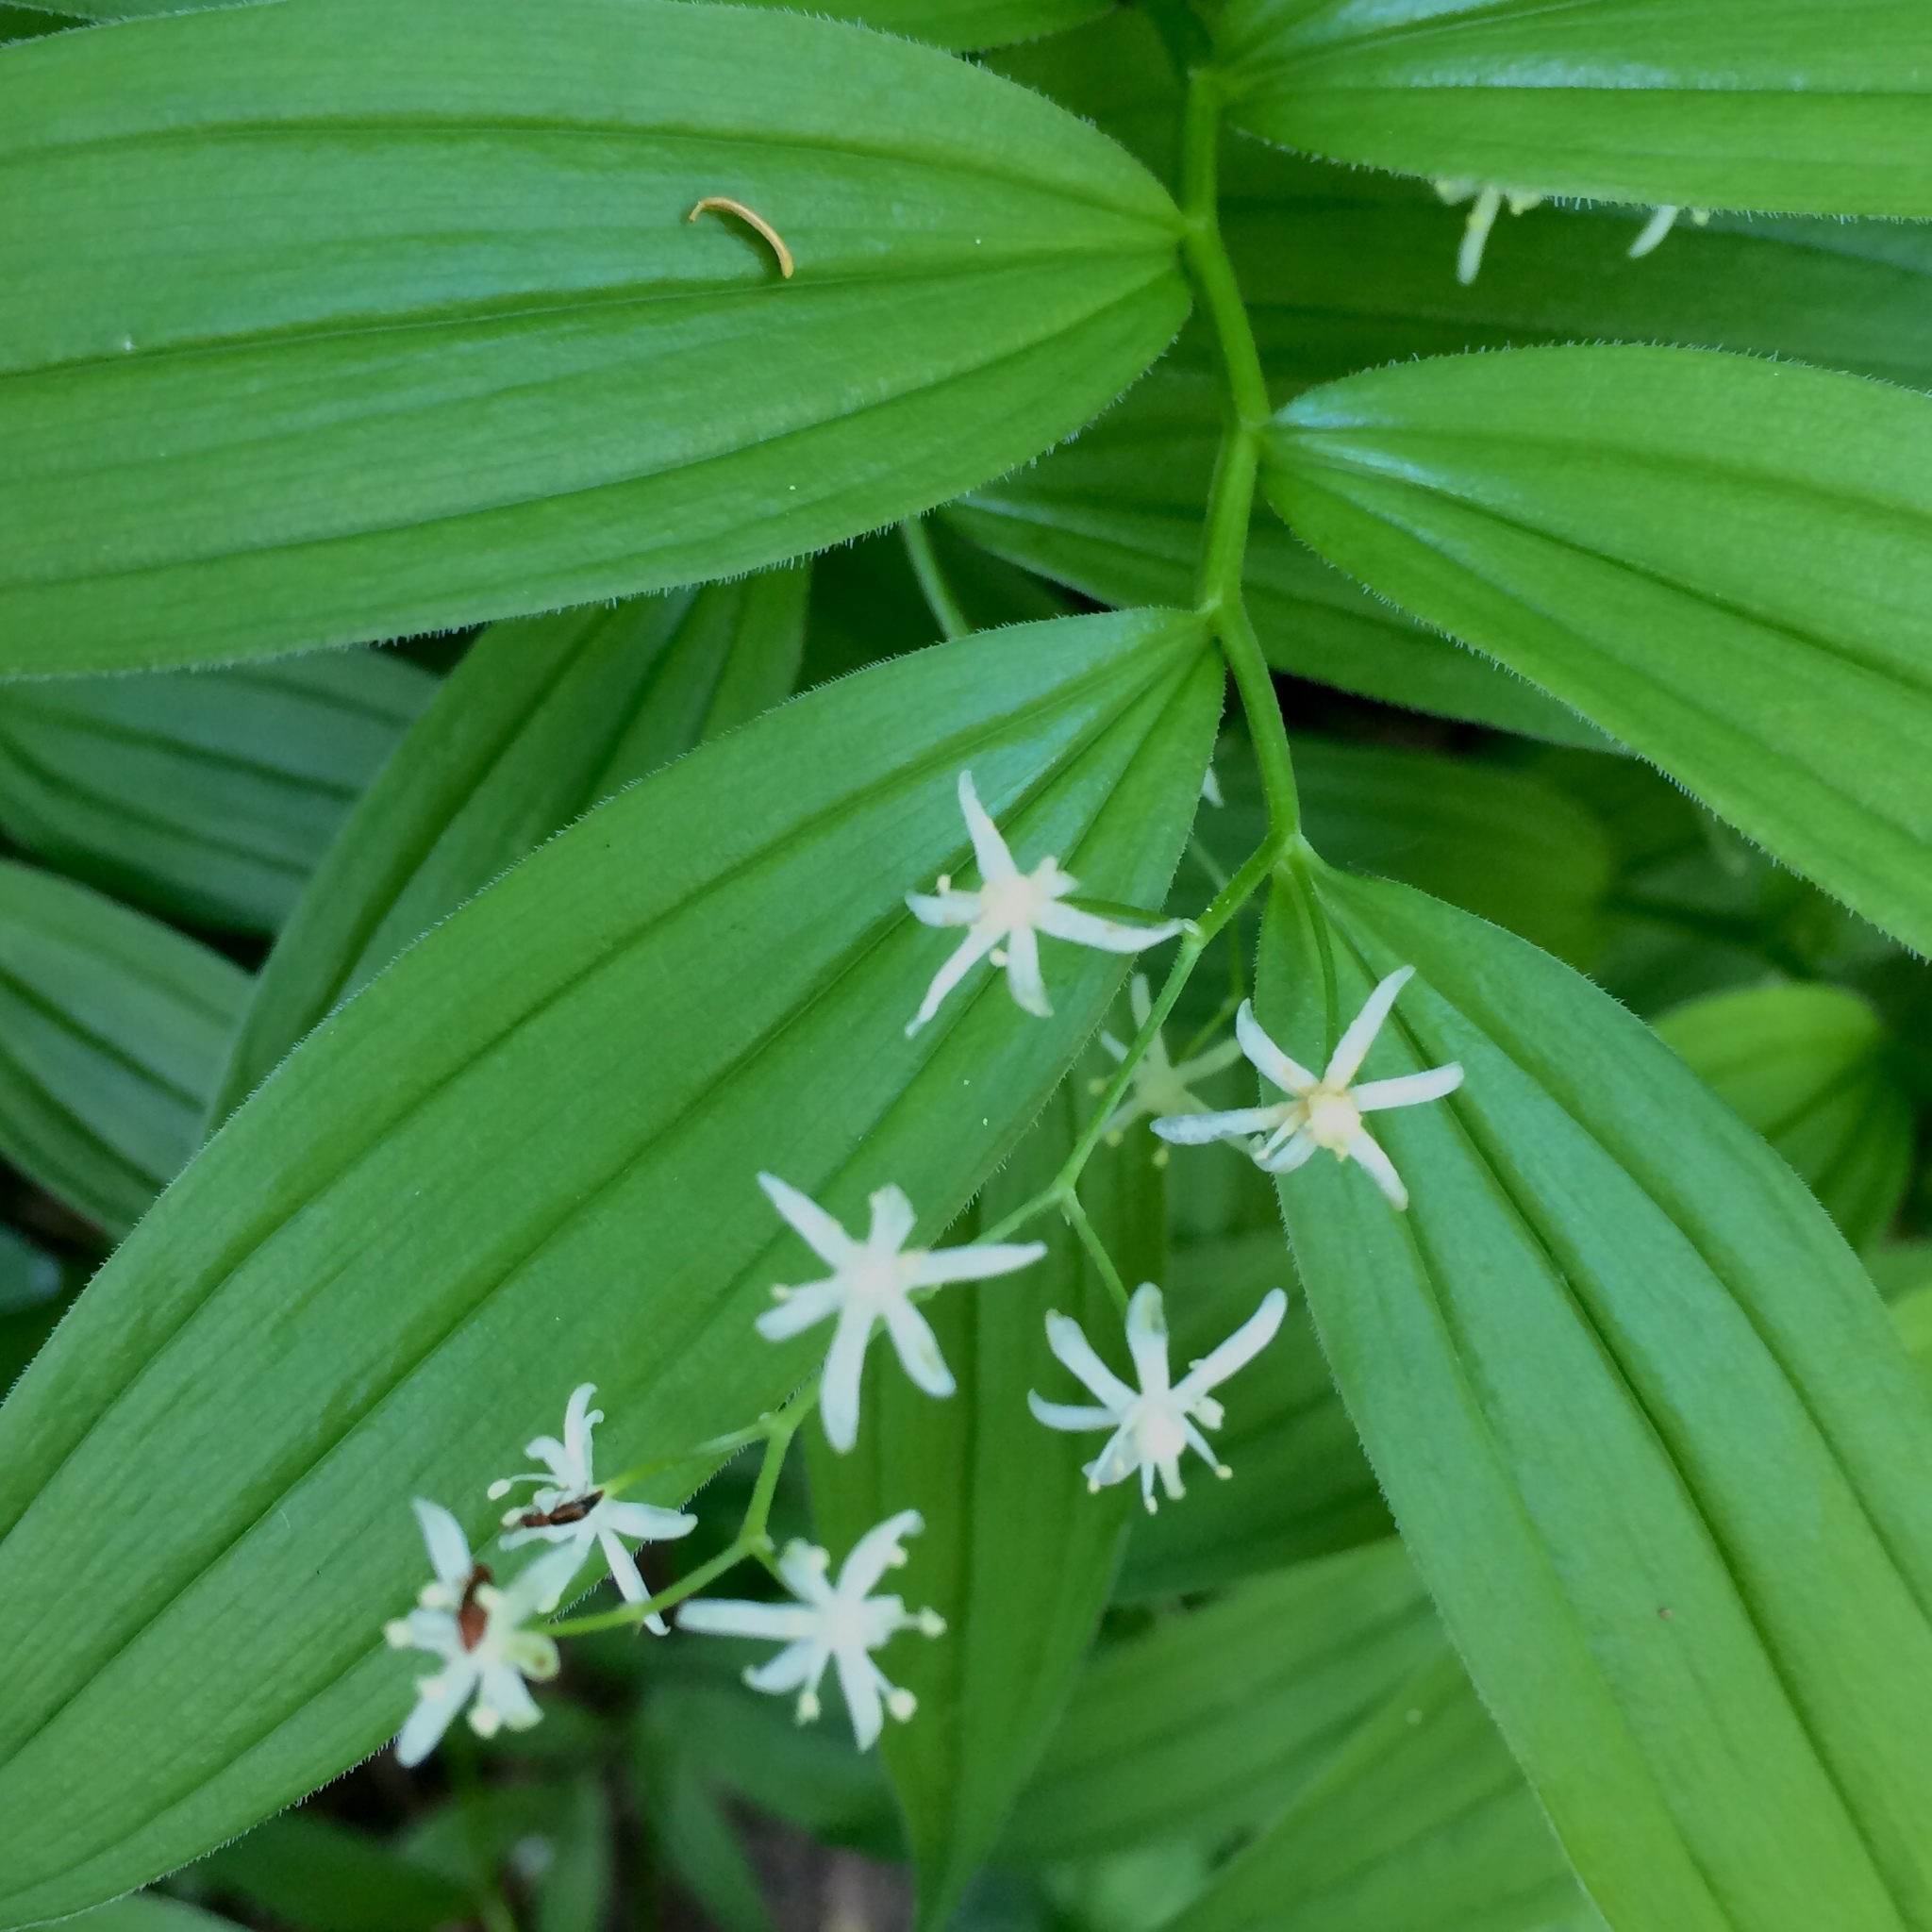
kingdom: Plantae
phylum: Tracheophyta
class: Liliopsida
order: Asparagales
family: Asparagaceae
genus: Maianthemum
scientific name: Maianthemum stellatum
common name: Little false solomon's seal
